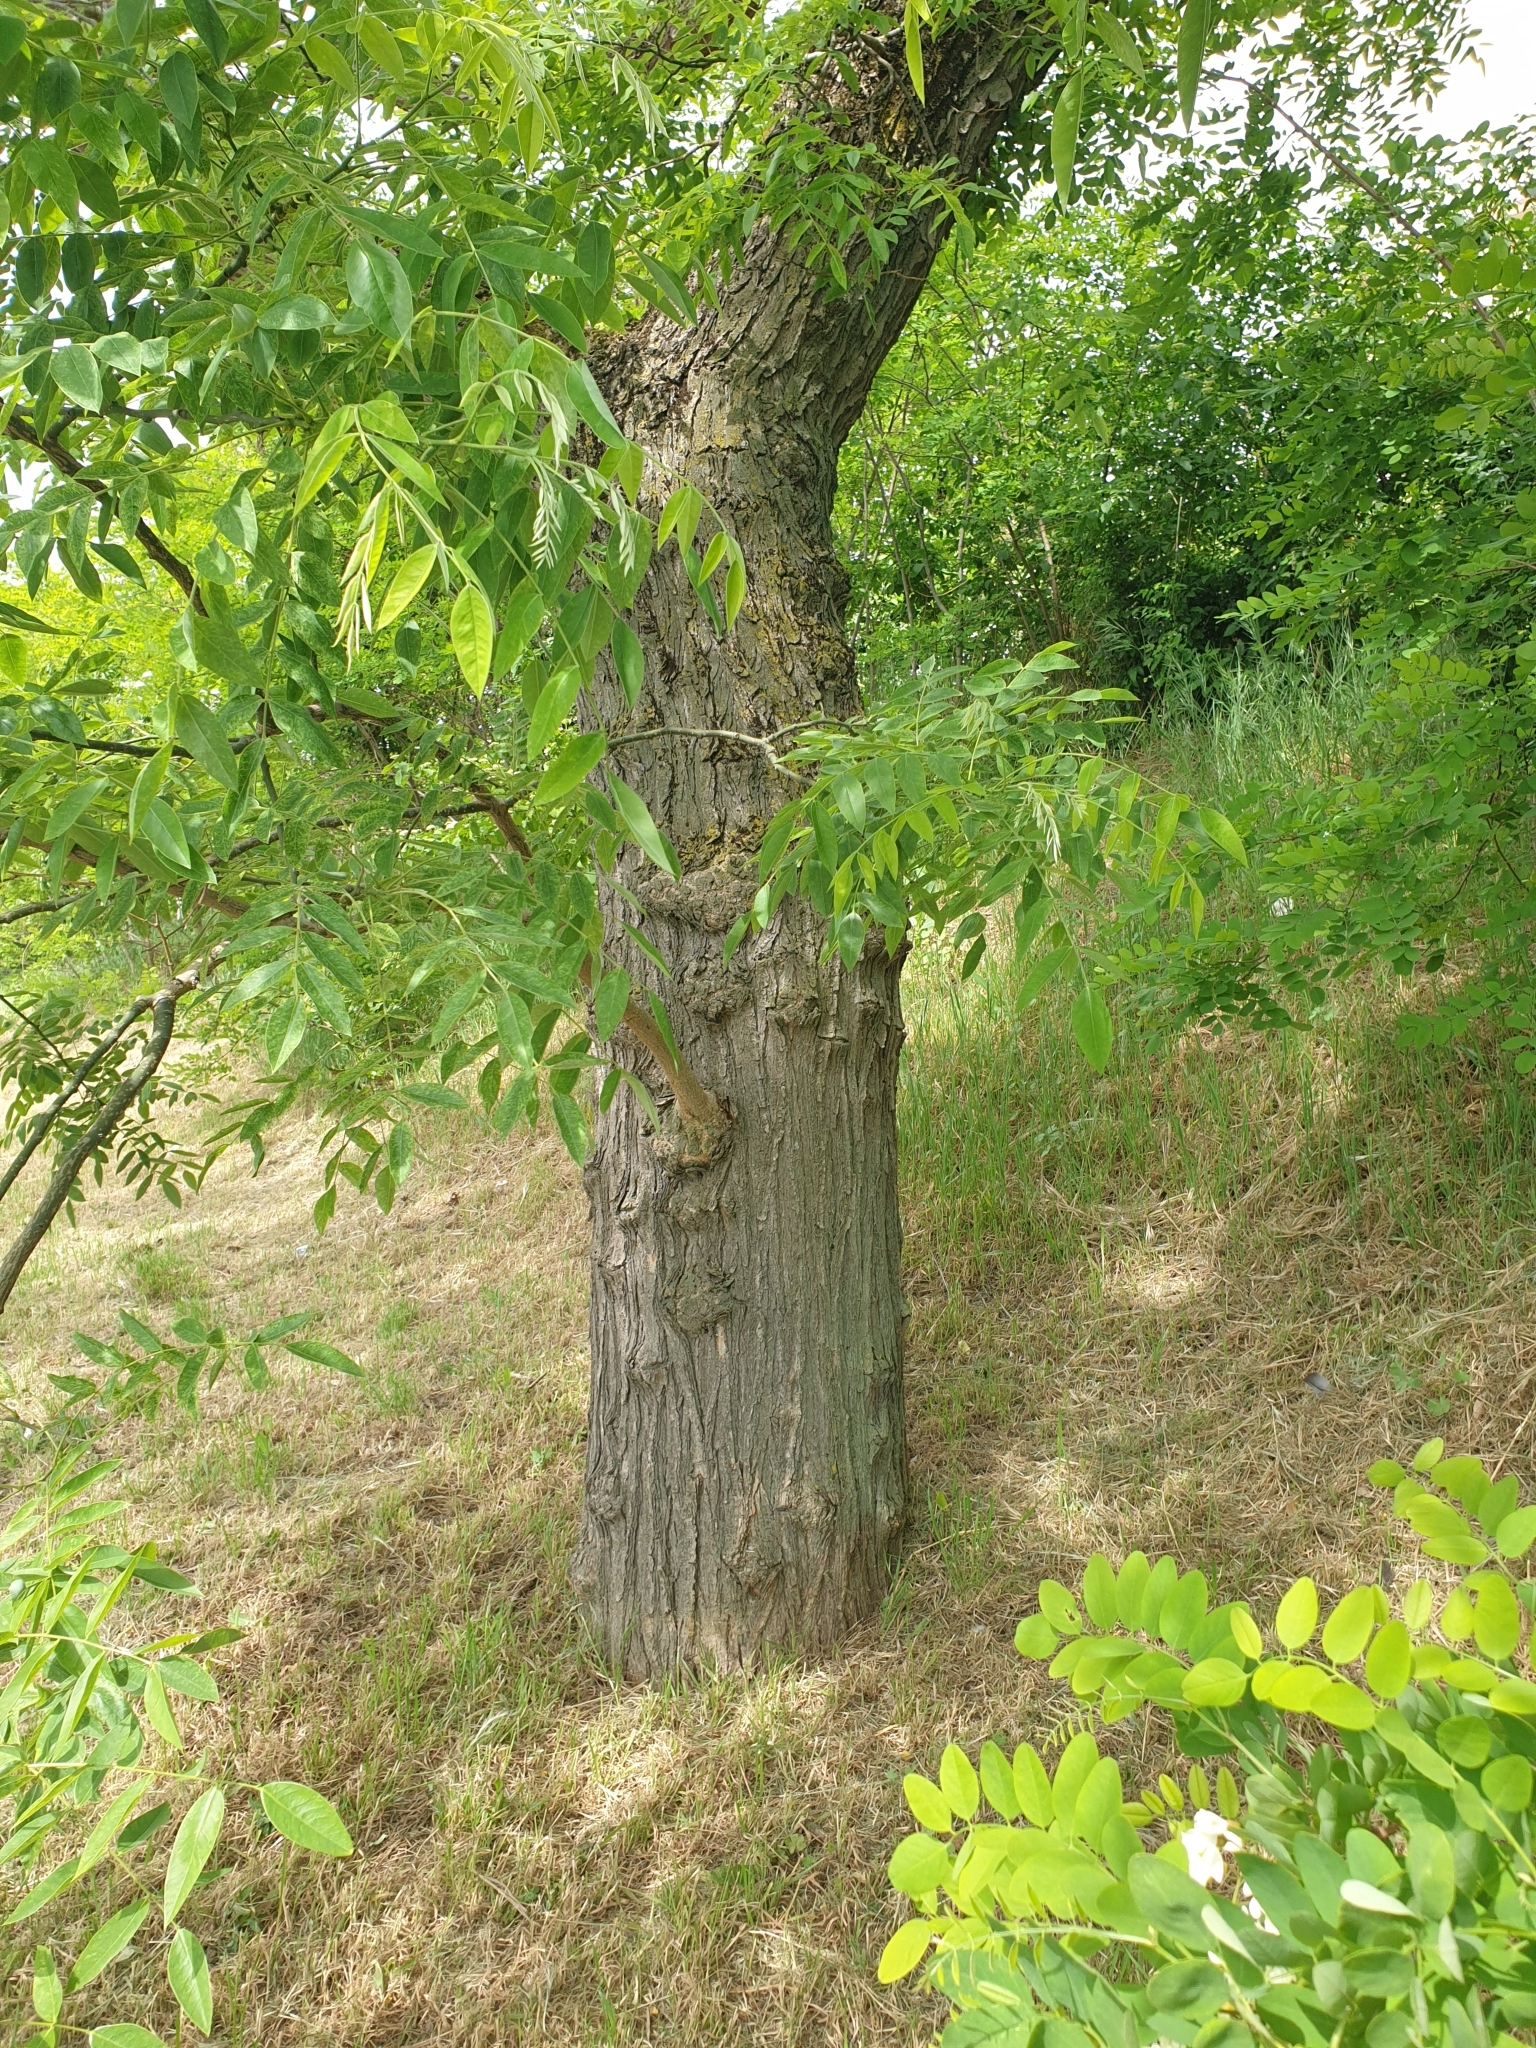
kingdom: Plantae
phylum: Tracheophyta
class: Magnoliopsida
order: Fabales
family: Fabaceae
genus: Robinia
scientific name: Robinia pseudoacacia
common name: Black locust
